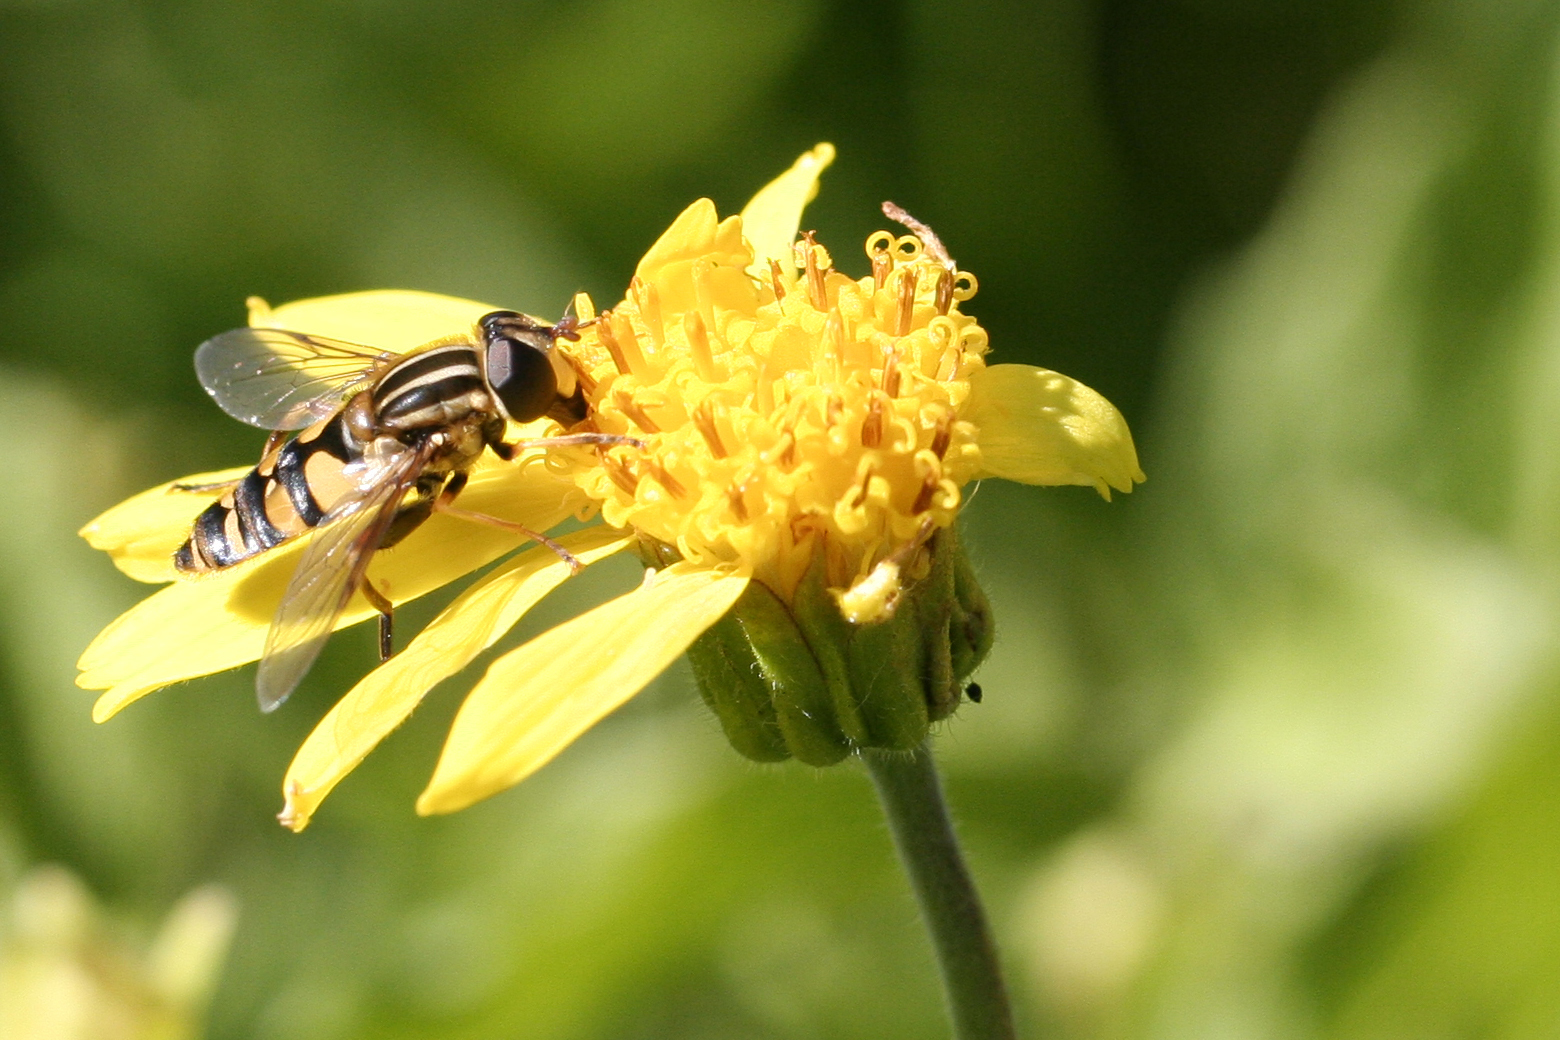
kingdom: Animalia
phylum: Arthropoda
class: Insecta
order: Diptera
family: Syrphidae
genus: Helophilus
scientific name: Helophilus fasciatus
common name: Narrow-headed marsh fly
